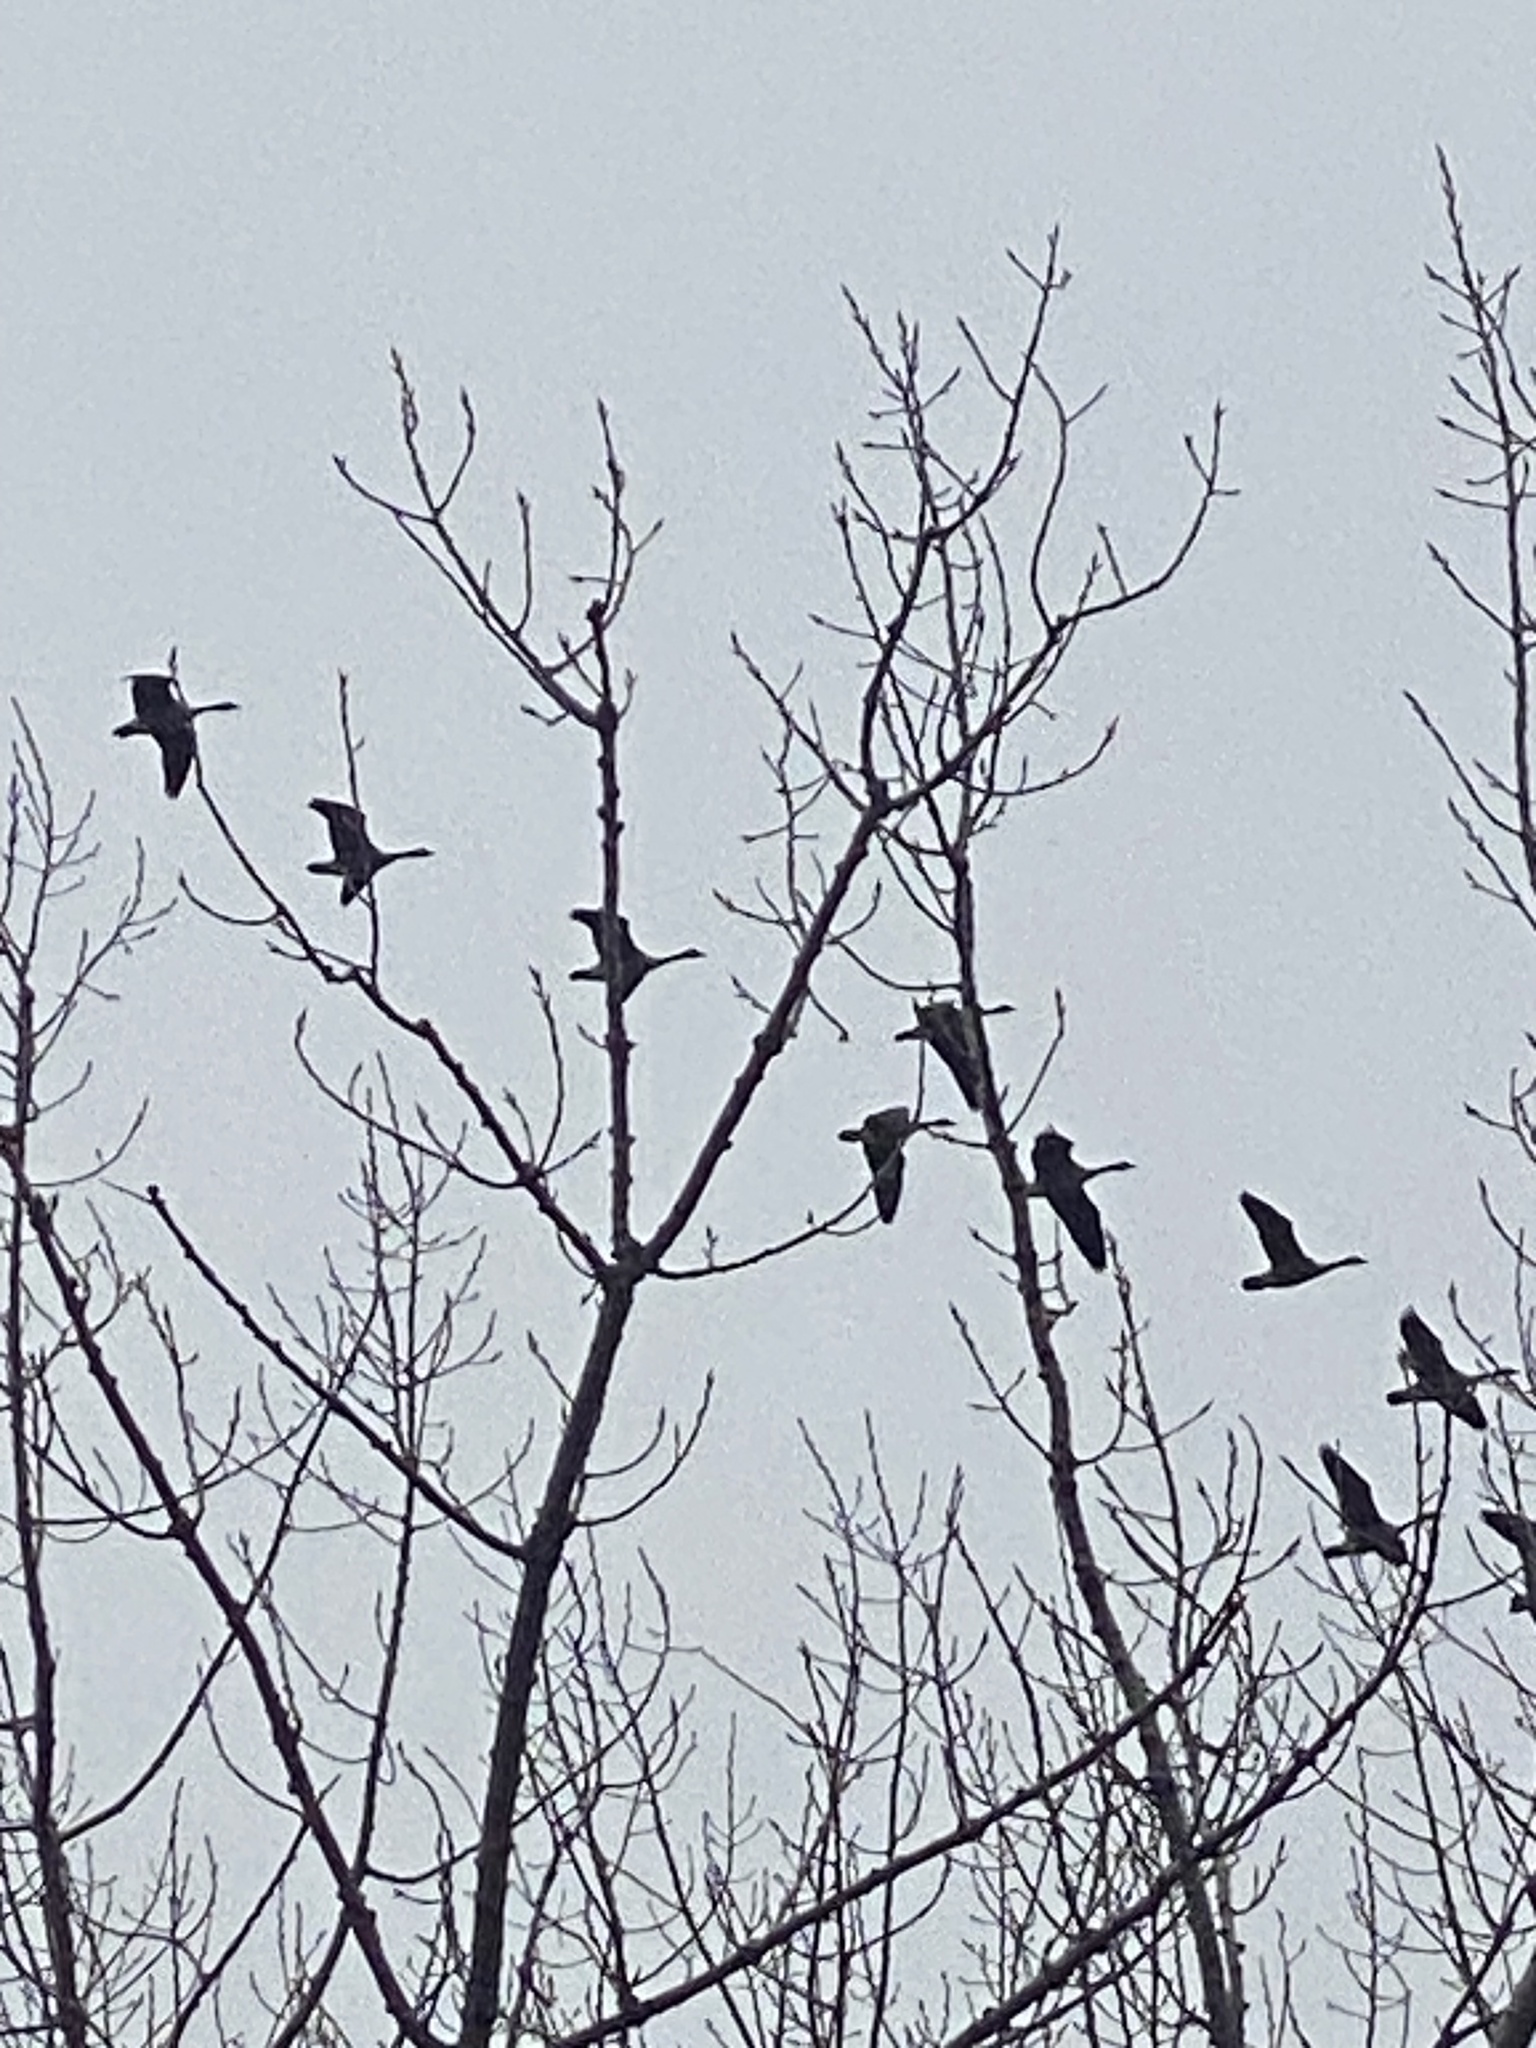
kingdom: Animalia
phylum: Chordata
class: Aves
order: Anseriformes
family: Anatidae
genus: Branta
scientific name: Branta canadensis
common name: Canada goose
